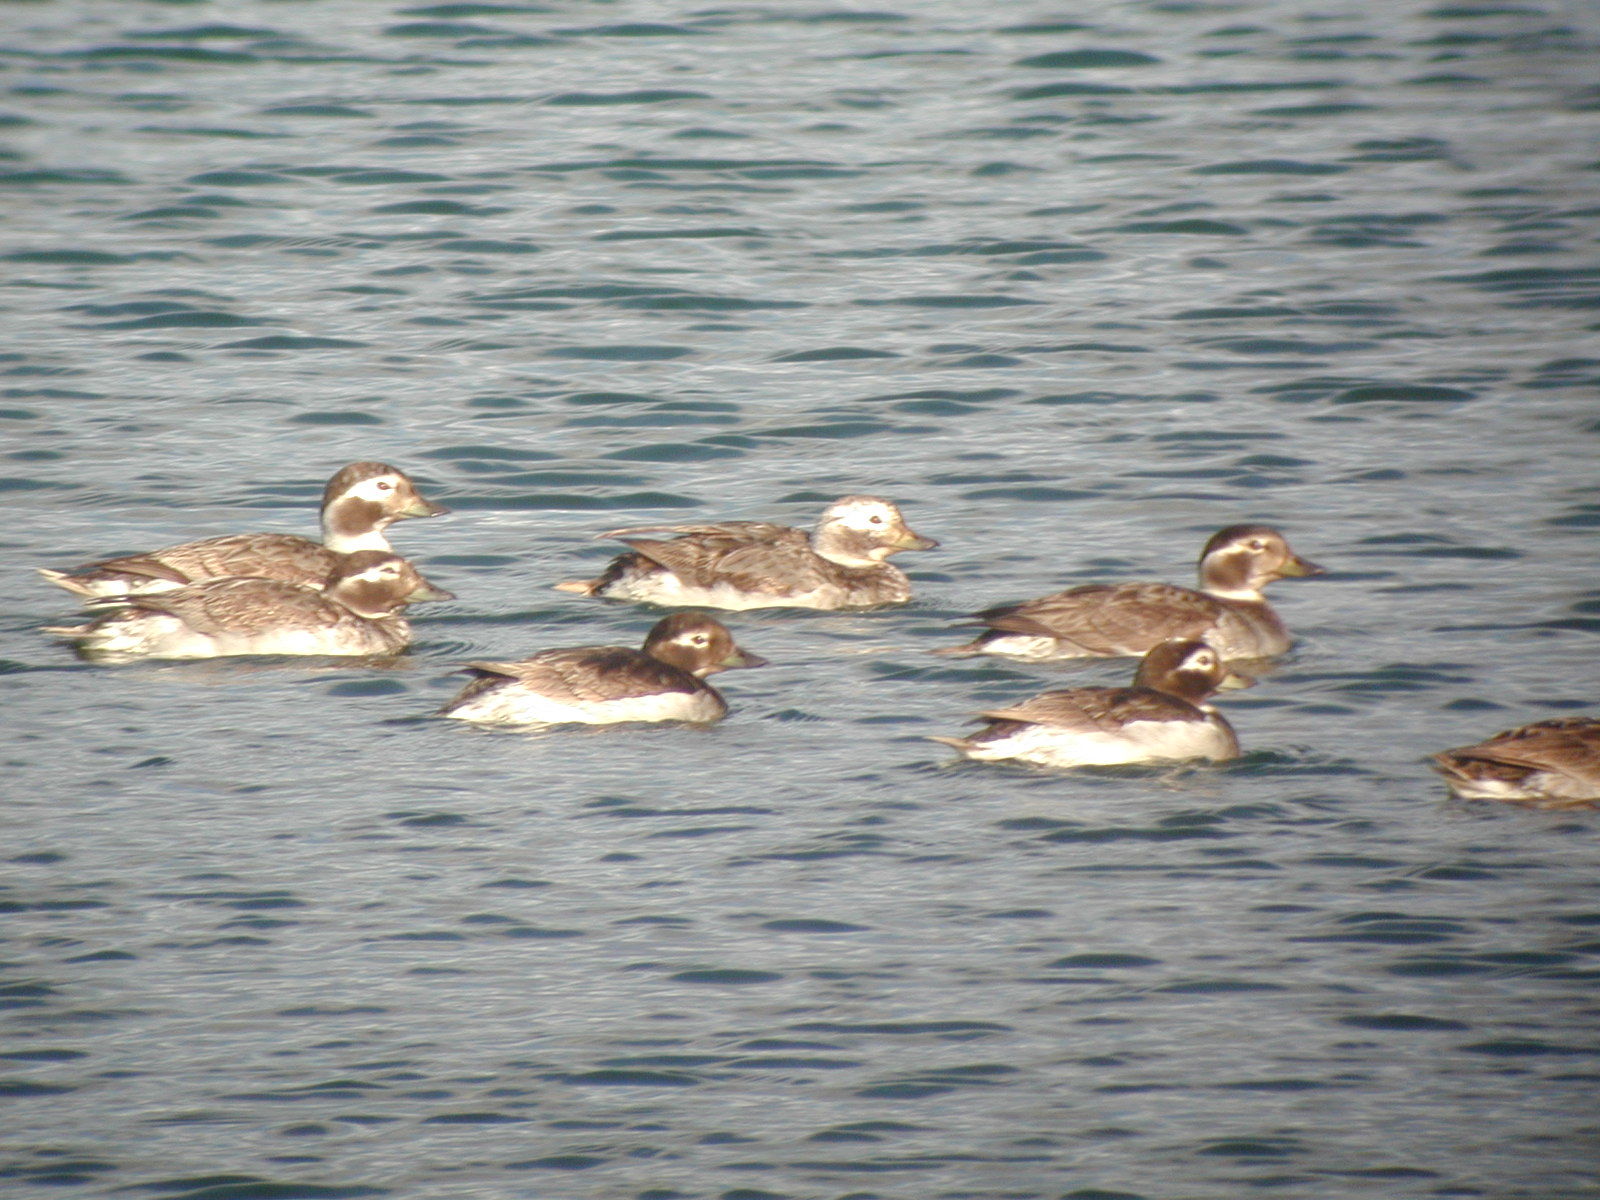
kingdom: Animalia
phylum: Chordata
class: Aves
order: Anseriformes
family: Anatidae
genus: Clangula
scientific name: Clangula hyemalis
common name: Long-tailed duck
